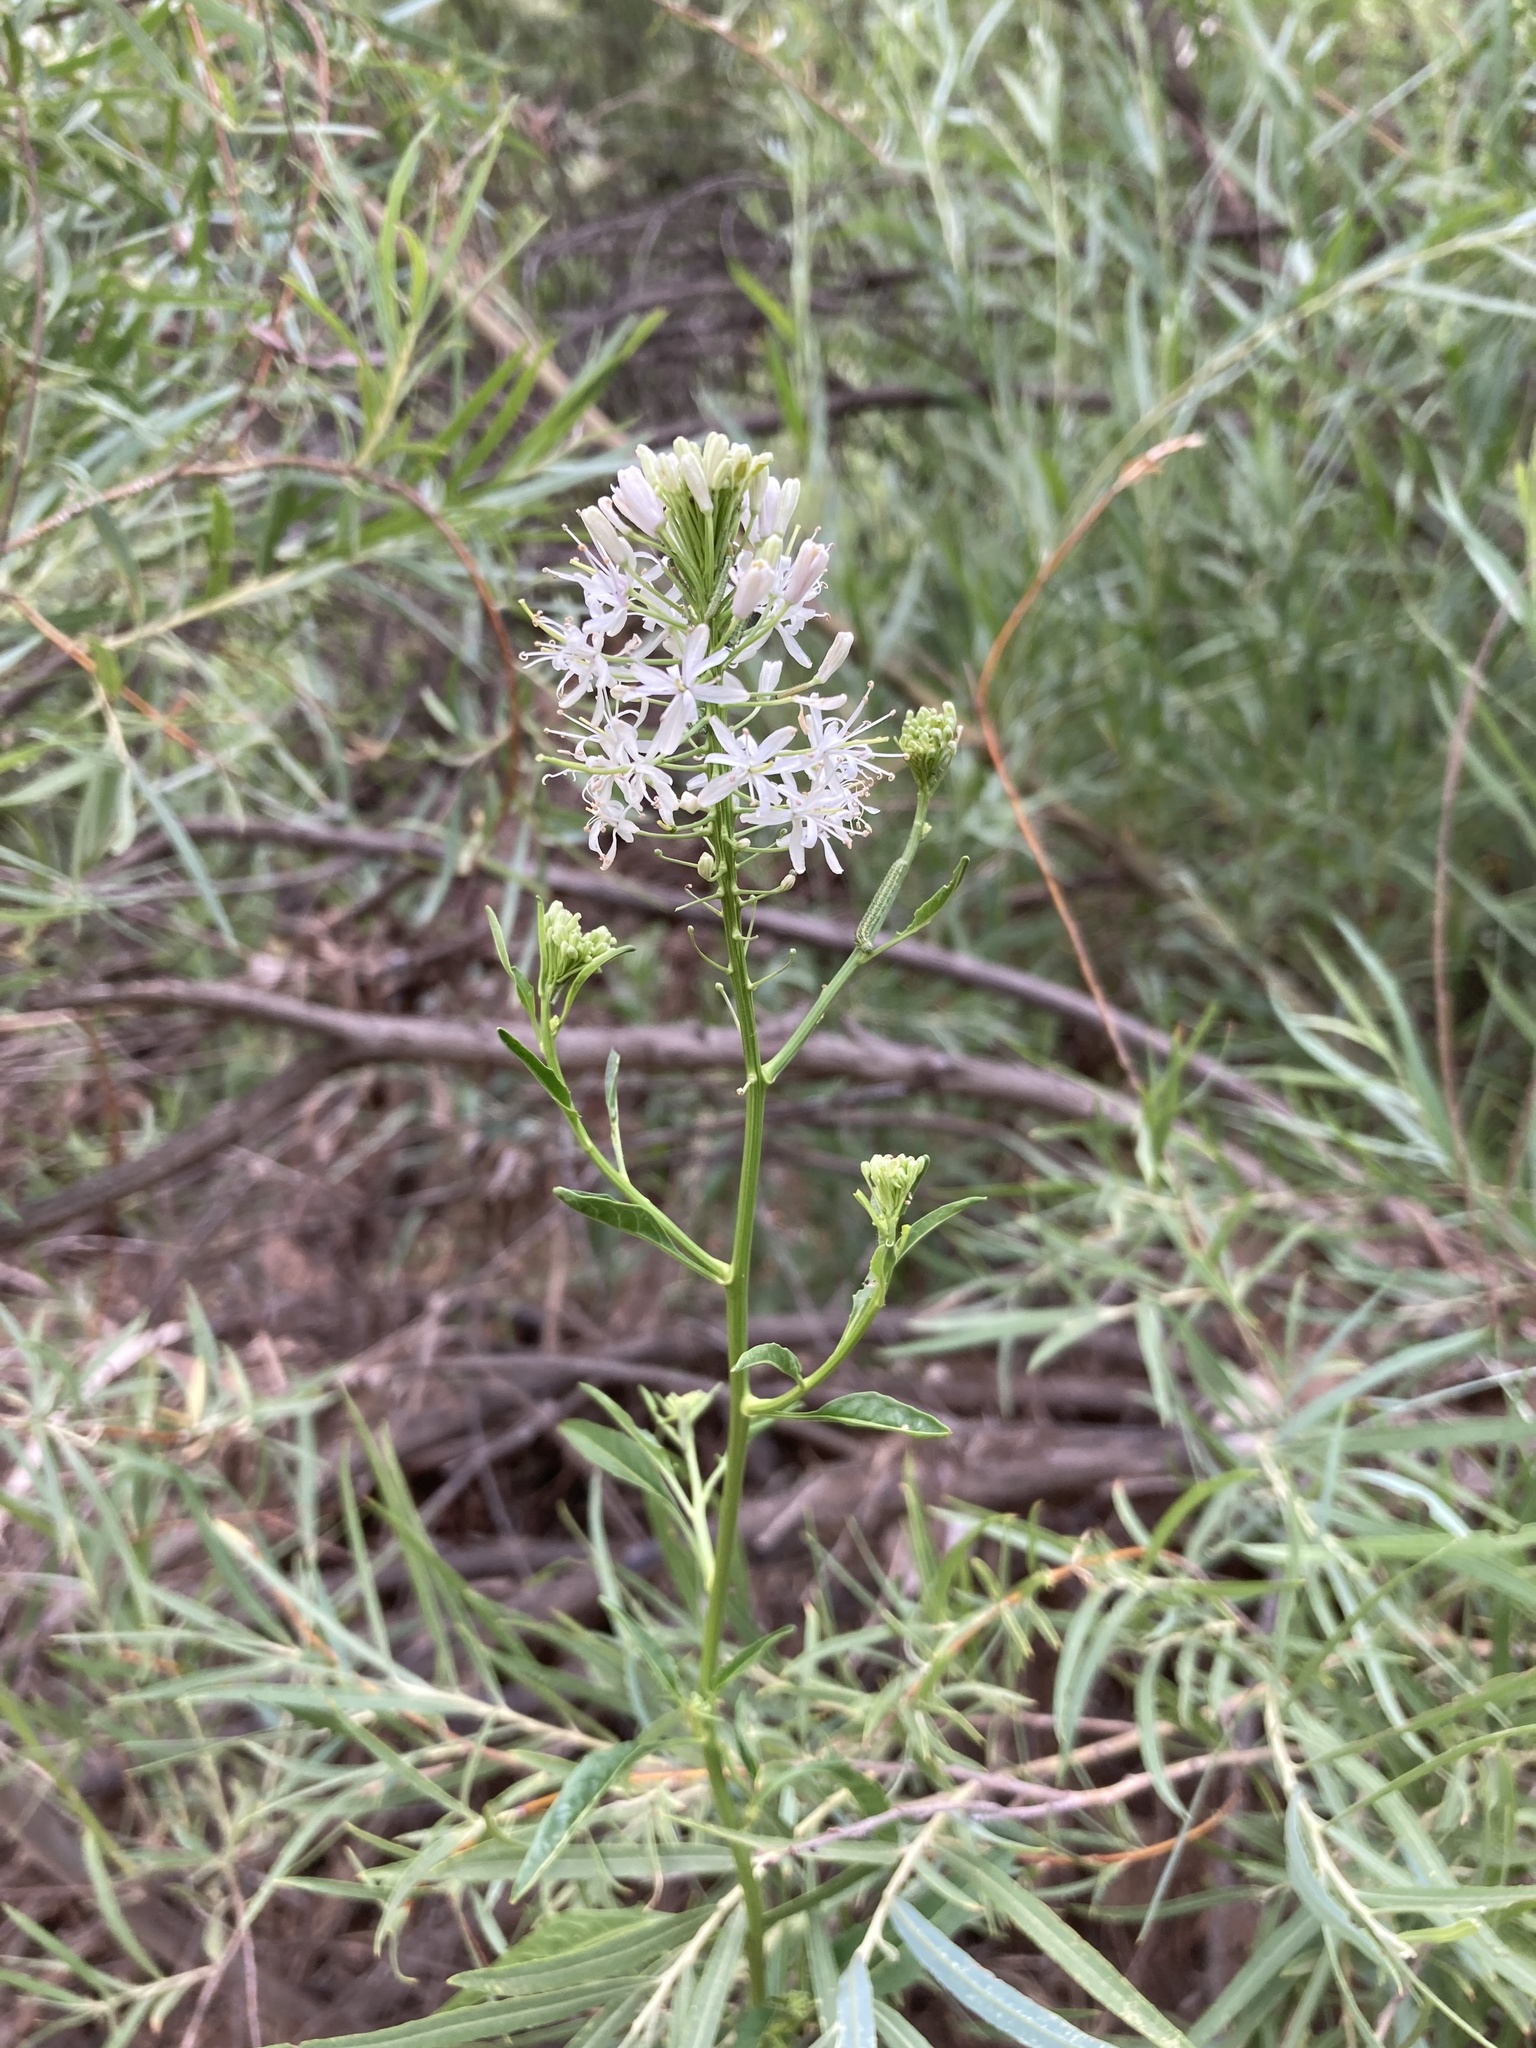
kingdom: Plantae
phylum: Tracheophyta
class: Magnoliopsida
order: Brassicales
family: Brassicaceae
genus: Thelypodium
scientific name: Thelypodium wrightii
